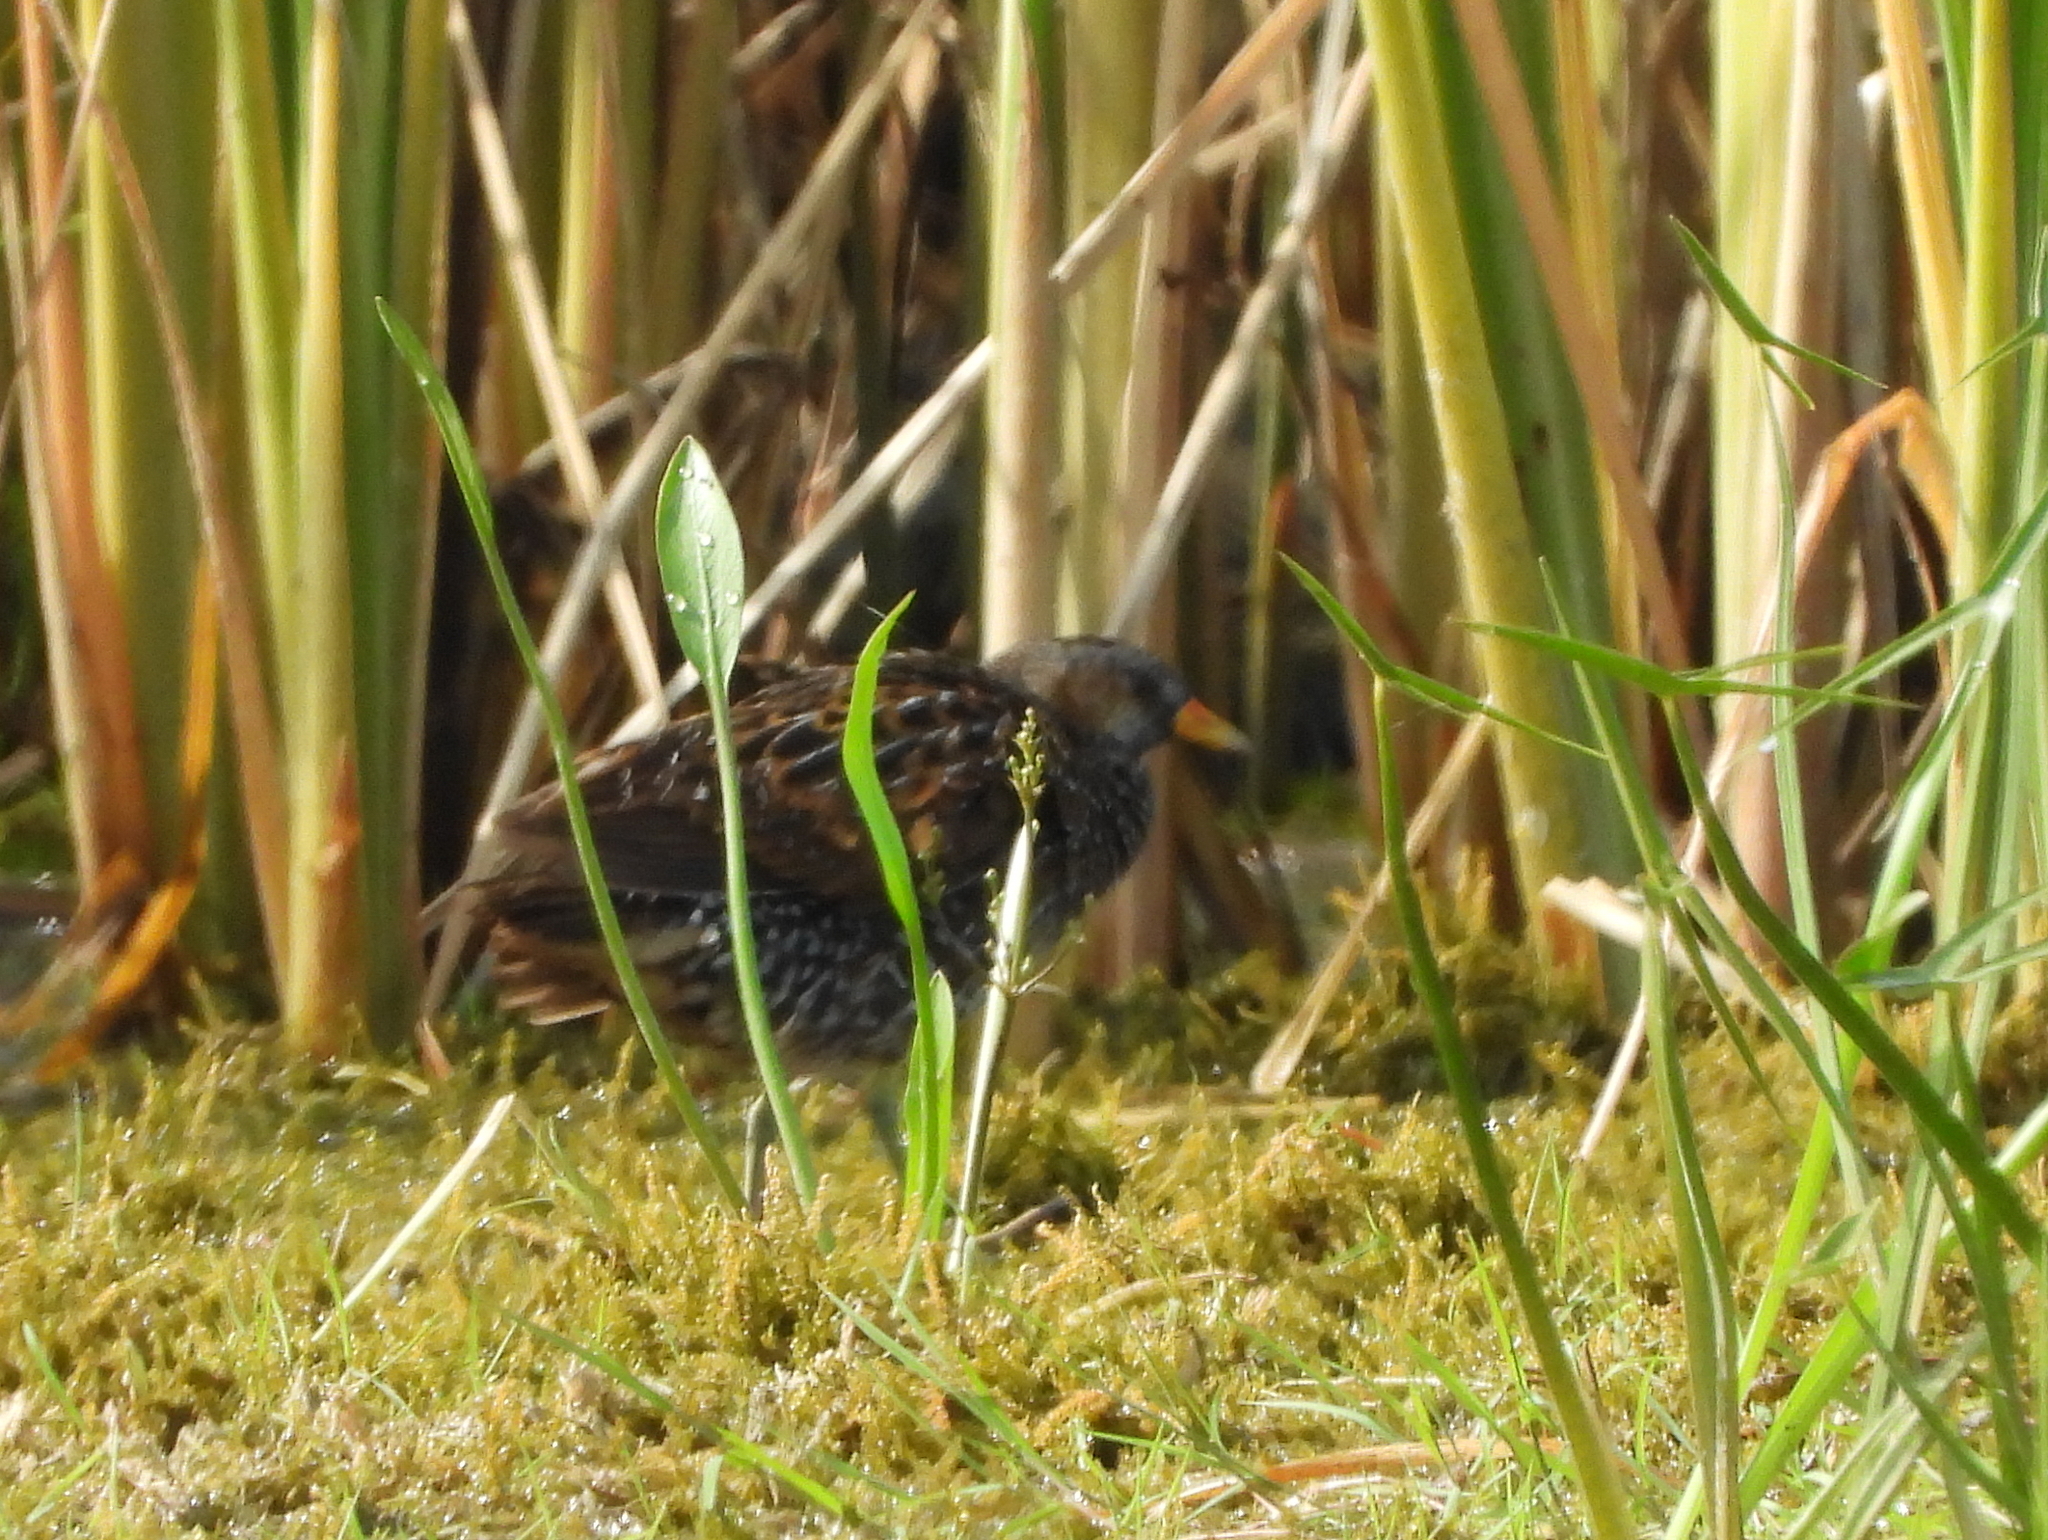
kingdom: Animalia
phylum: Chordata
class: Aves
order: Gruiformes
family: Rallidae
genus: Porzana
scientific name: Porzana porzana
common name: Spotted crake
